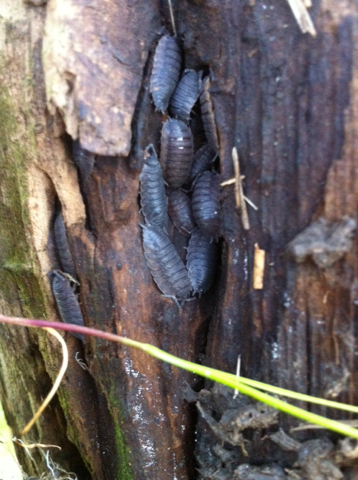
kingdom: Animalia
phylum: Arthropoda
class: Malacostraca
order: Isopoda
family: Porcellionidae
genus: Porcellio
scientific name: Porcellio scaber
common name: Common rough woodlouse
